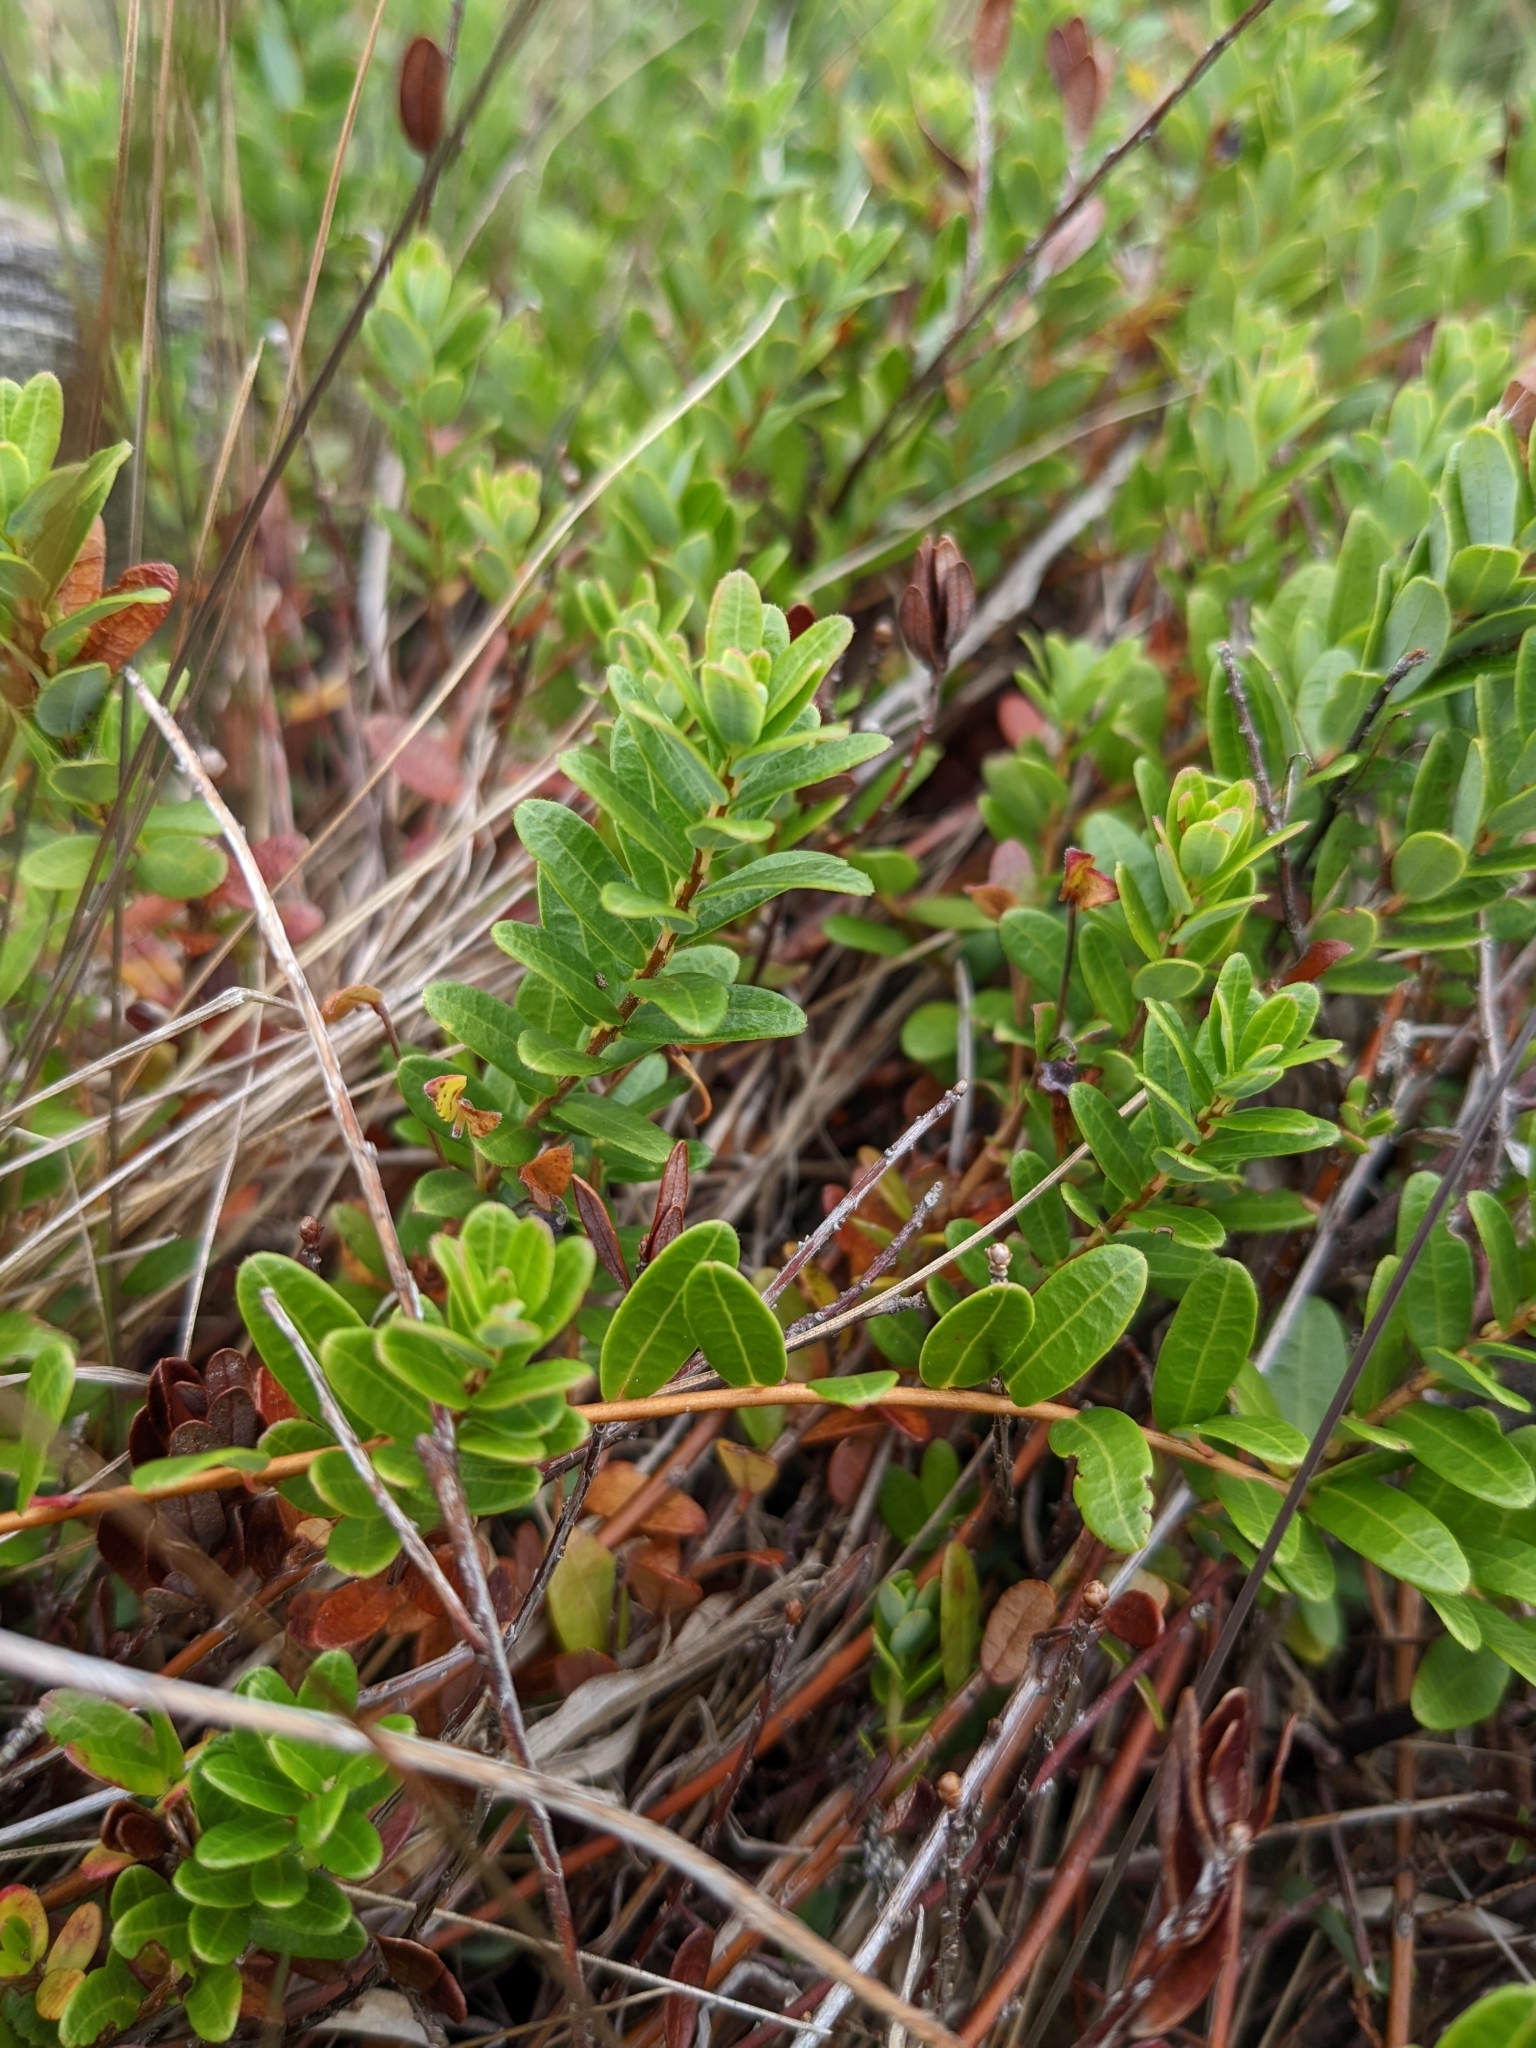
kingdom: Plantae
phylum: Tracheophyta
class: Magnoliopsida
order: Ericales
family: Ericaceae
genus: Vaccinium
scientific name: Vaccinium macrocarpon
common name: American cranberry
